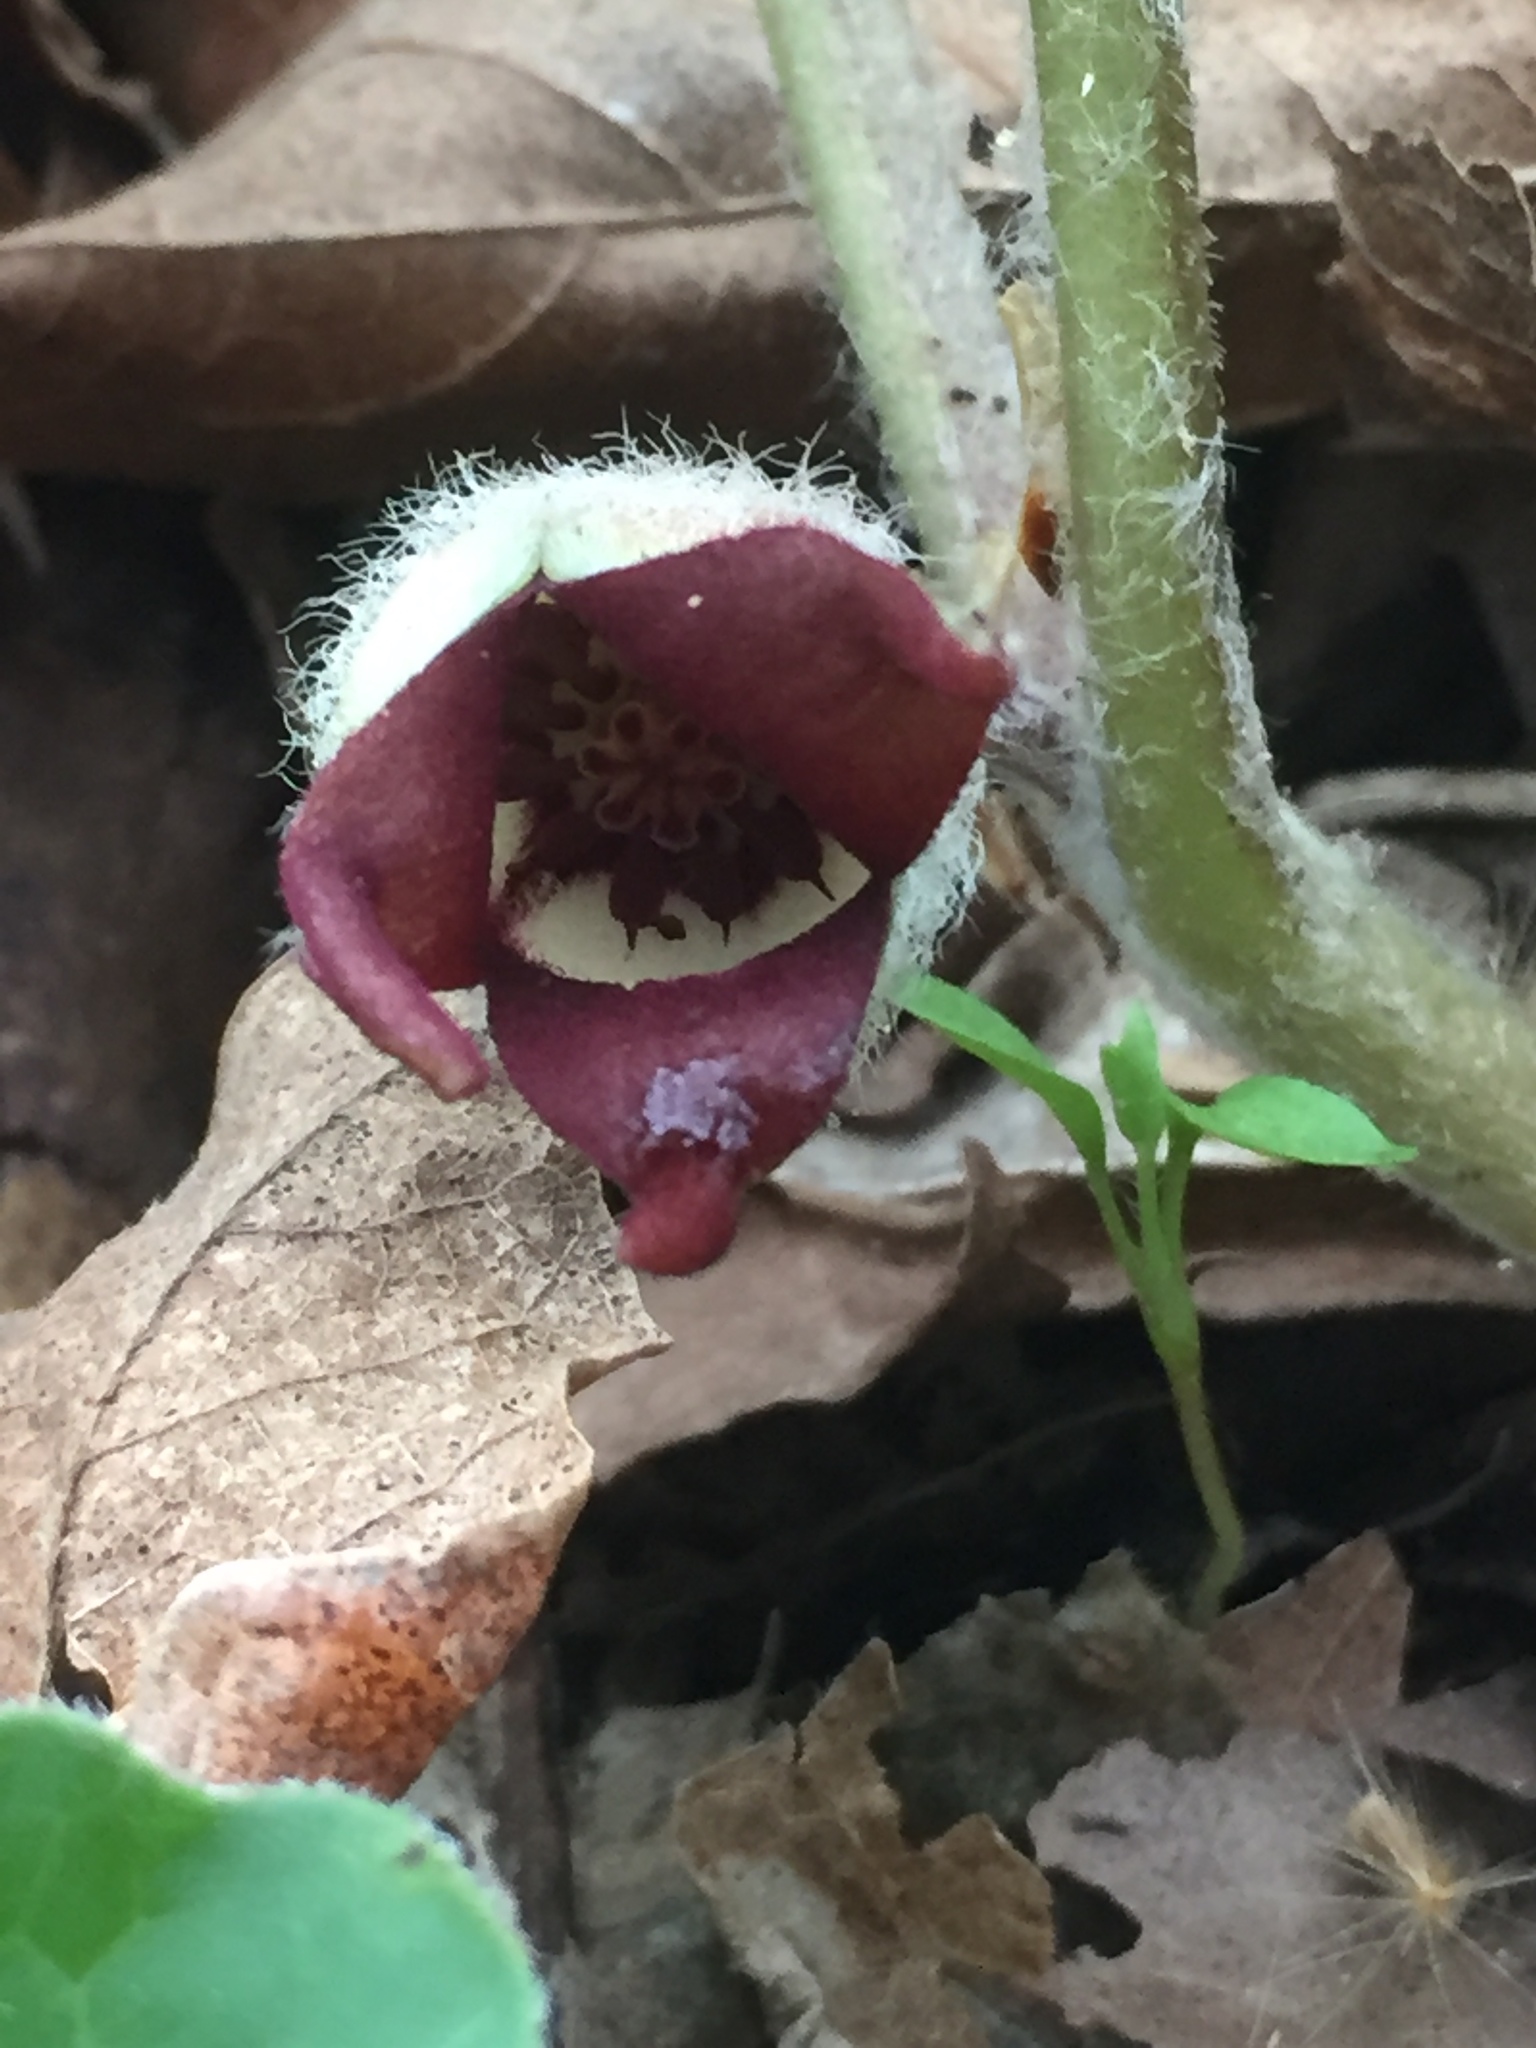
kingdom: Plantae
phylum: Tracheophyta
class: Magnoliopsida
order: Piperales
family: Aristolochiaceae
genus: Asarum
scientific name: Asarum canadense
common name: Wild ginger
